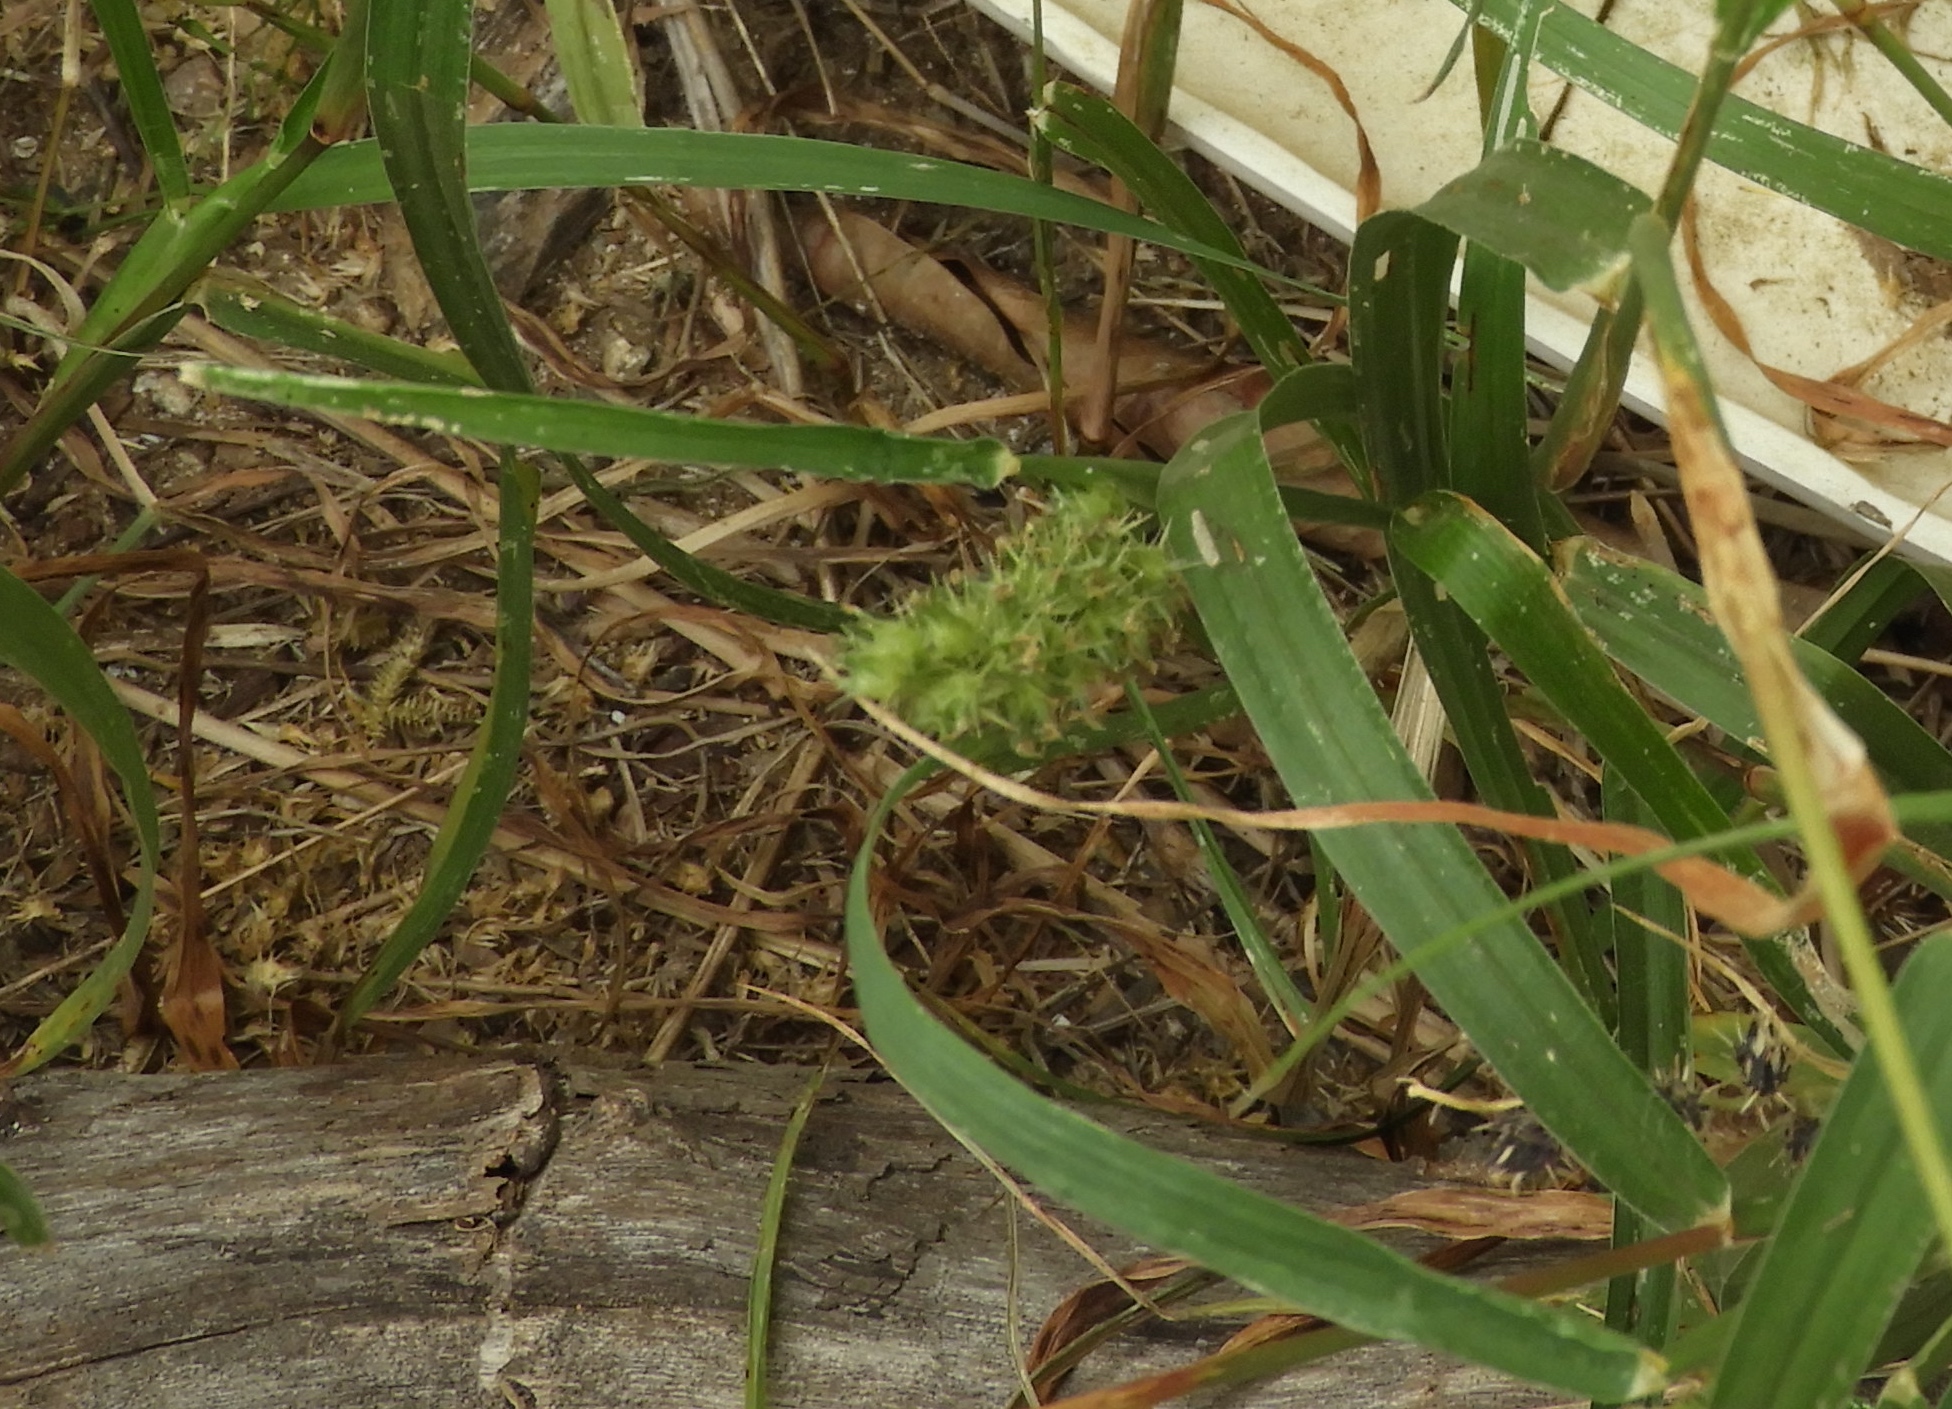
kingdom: Plantae
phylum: Tracheophyta
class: Liliopsida
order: Poales
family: Poaceae
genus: Cenchrus
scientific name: Cenchrus echinatus
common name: Southern sandbur
